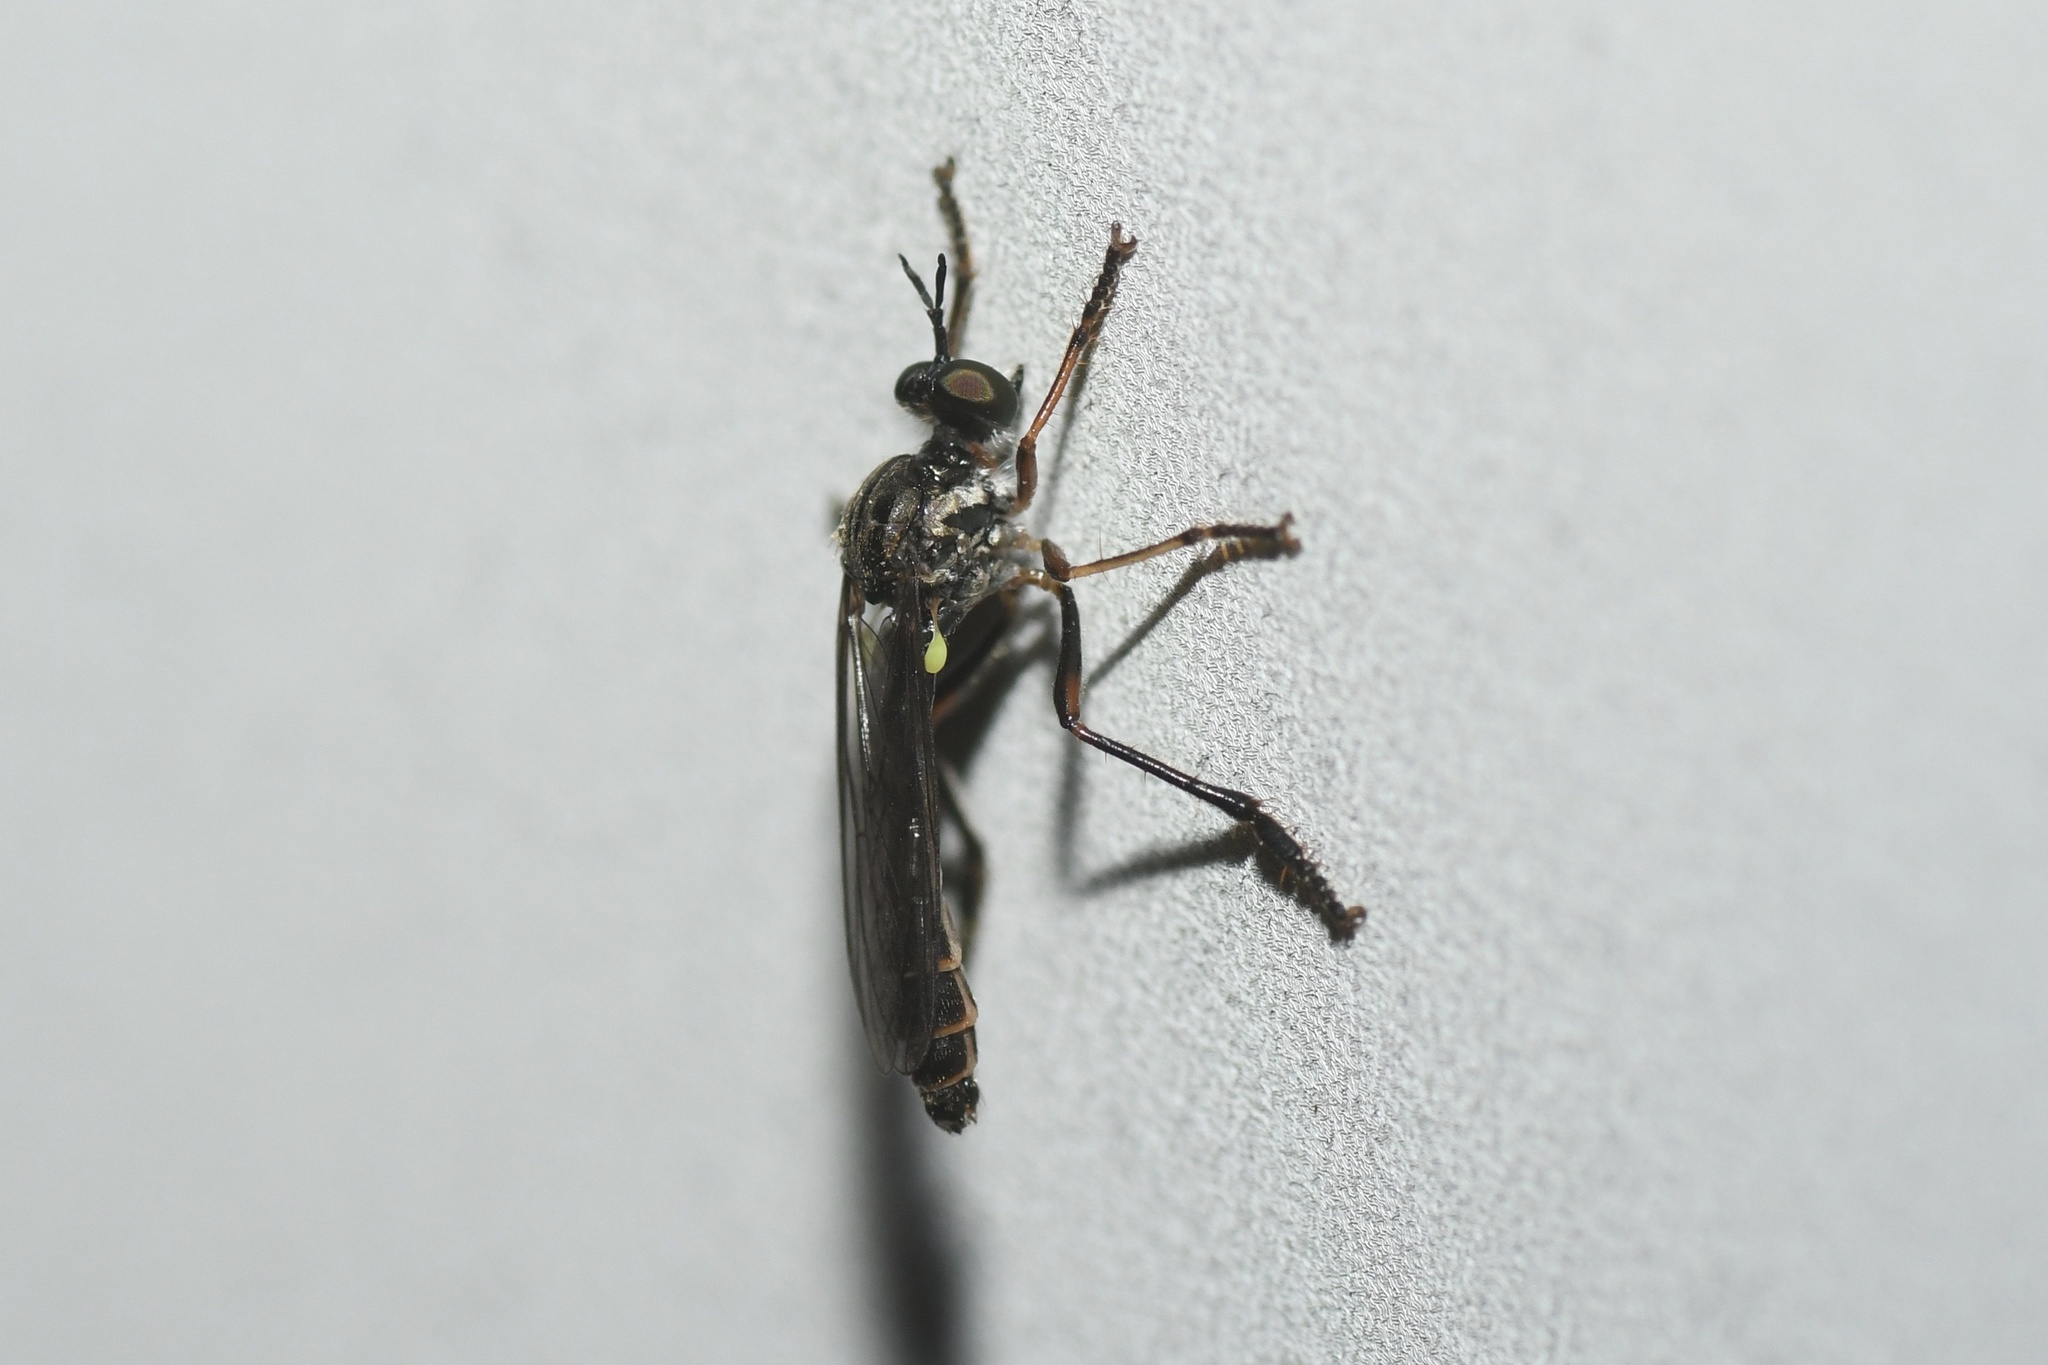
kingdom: Animalia
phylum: Arthropoda
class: Insecta
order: Diptera
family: Asilidae
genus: Dioctria
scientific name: Dioctria hyalipennis
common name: Stripe-legged robberfly
